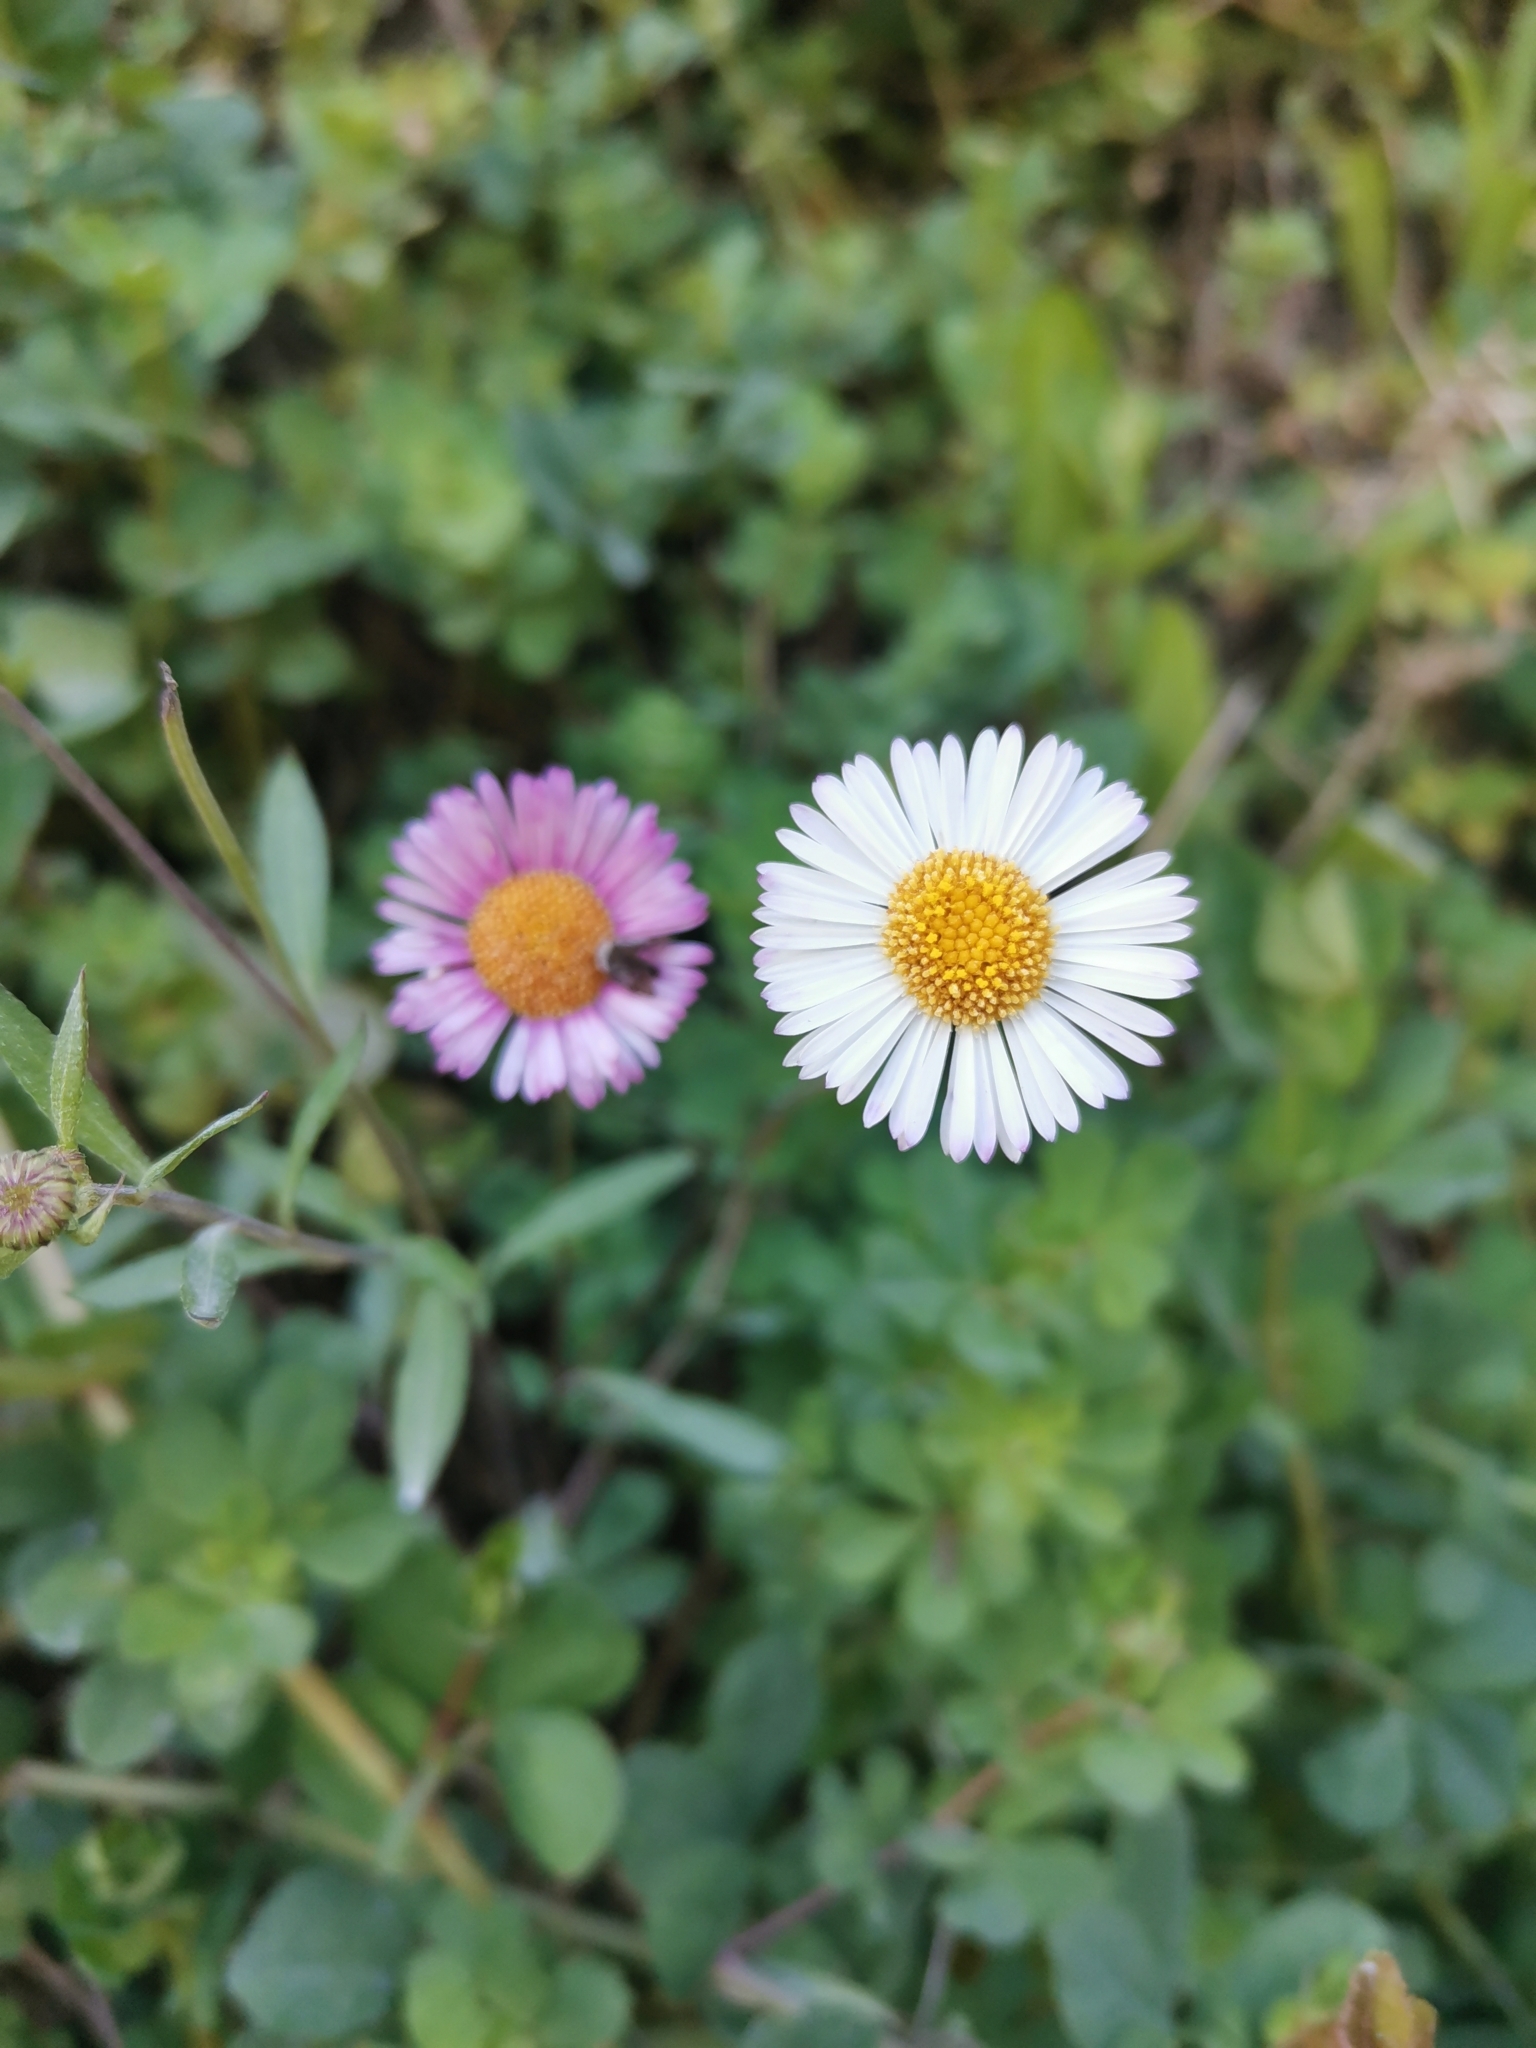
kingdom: Plantae
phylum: Tracheophyta
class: Magnoliopsida
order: Asterales
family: Asteraceae
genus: Erigeron
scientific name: Erigeron karvinskianus
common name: Mexican fleabane
